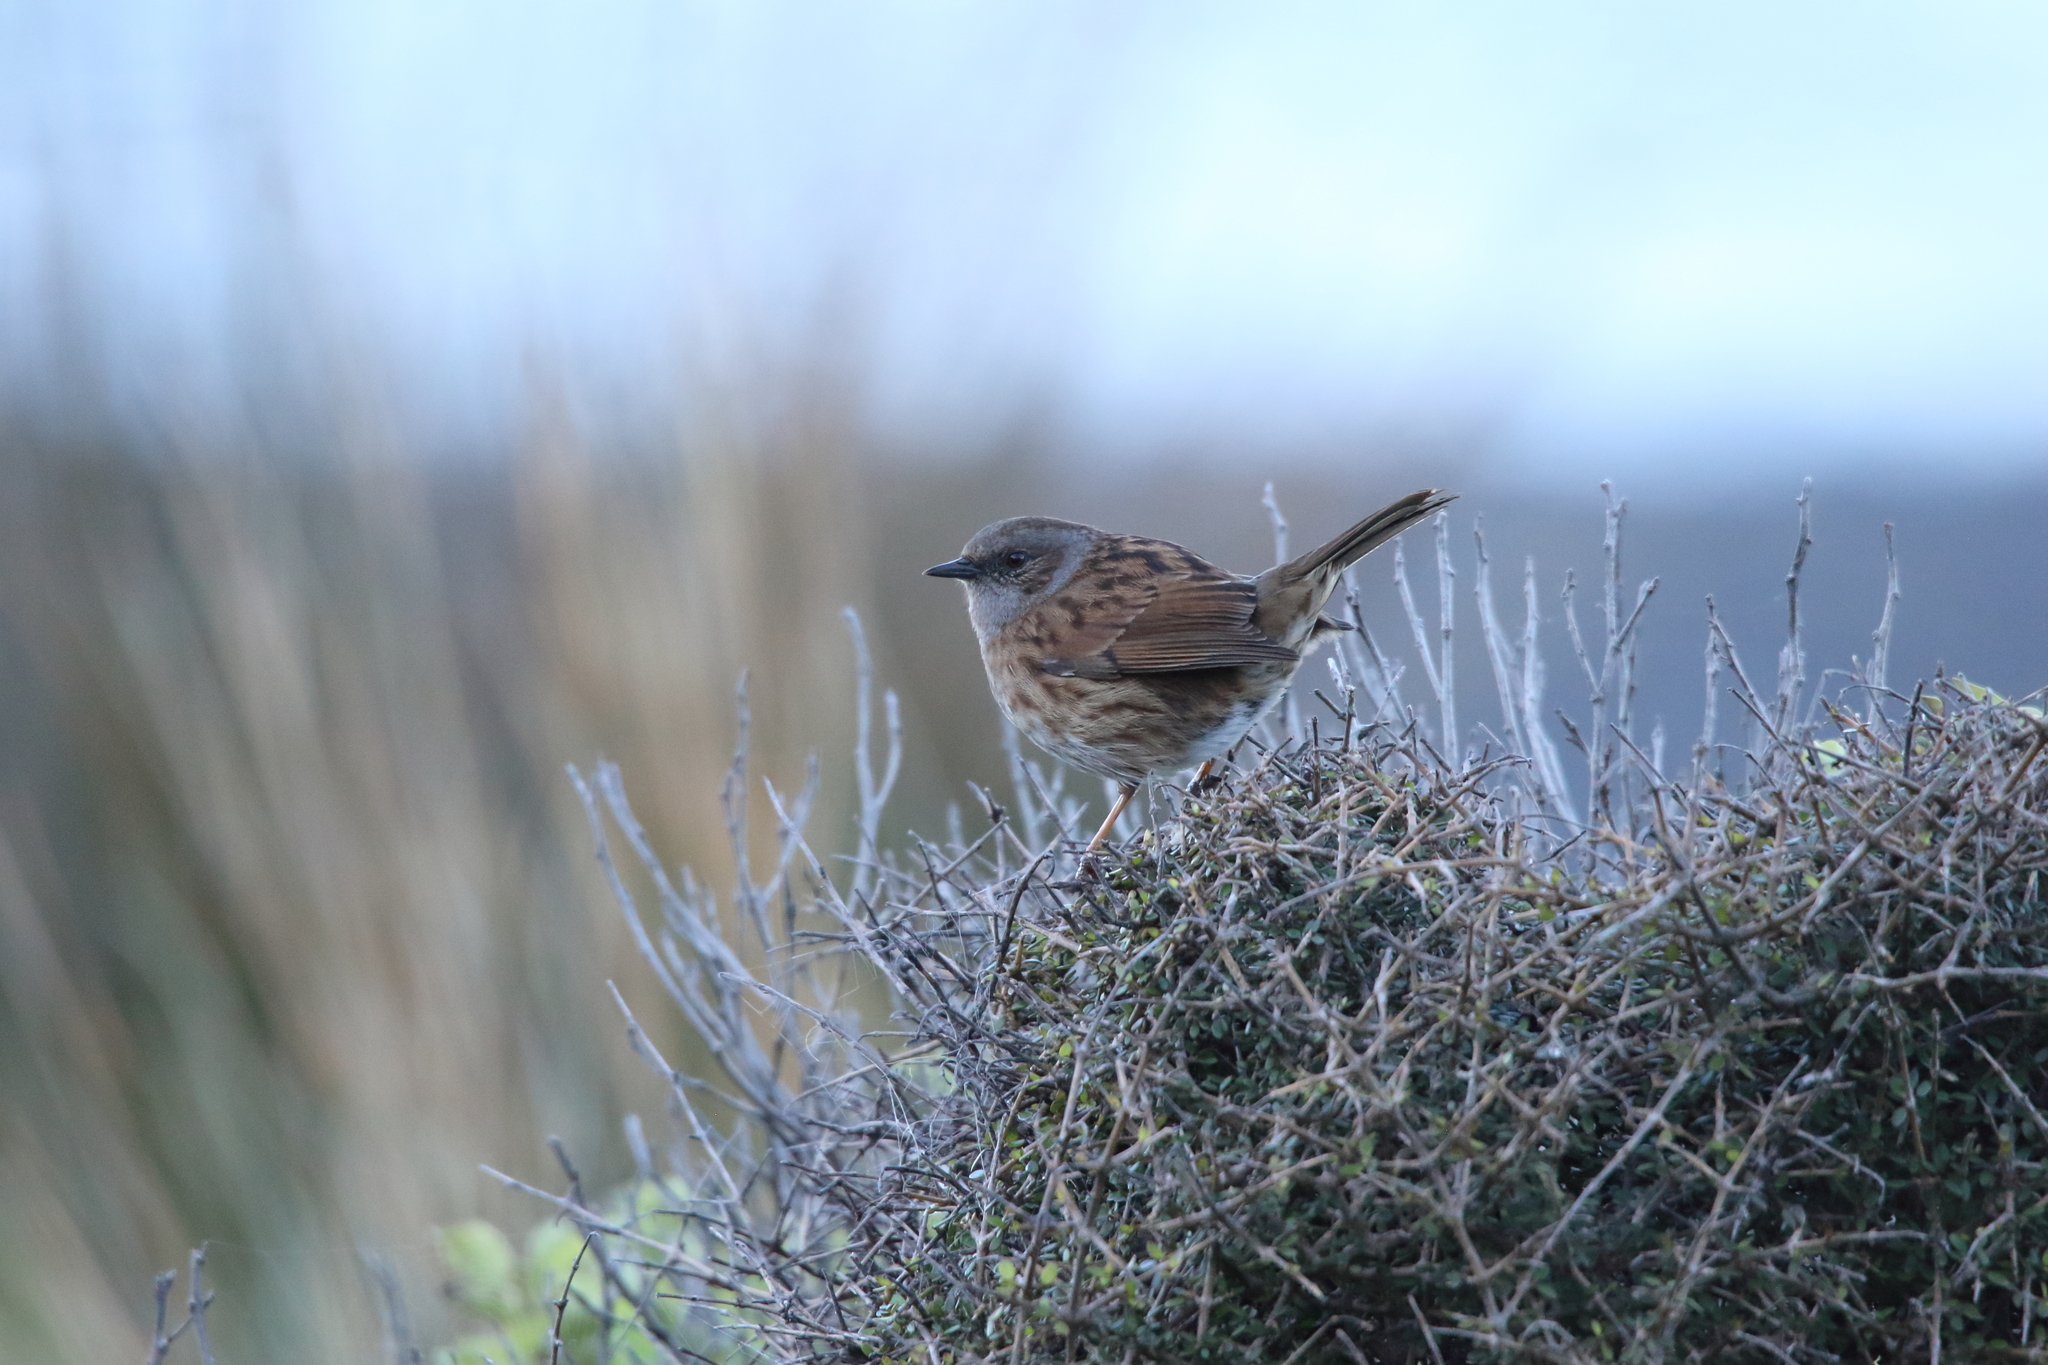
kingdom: Animalia
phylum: Chordata
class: Aves
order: Passeriformes
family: Prunellidae
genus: Prunella
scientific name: Prunella modularis
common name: Dunnock
